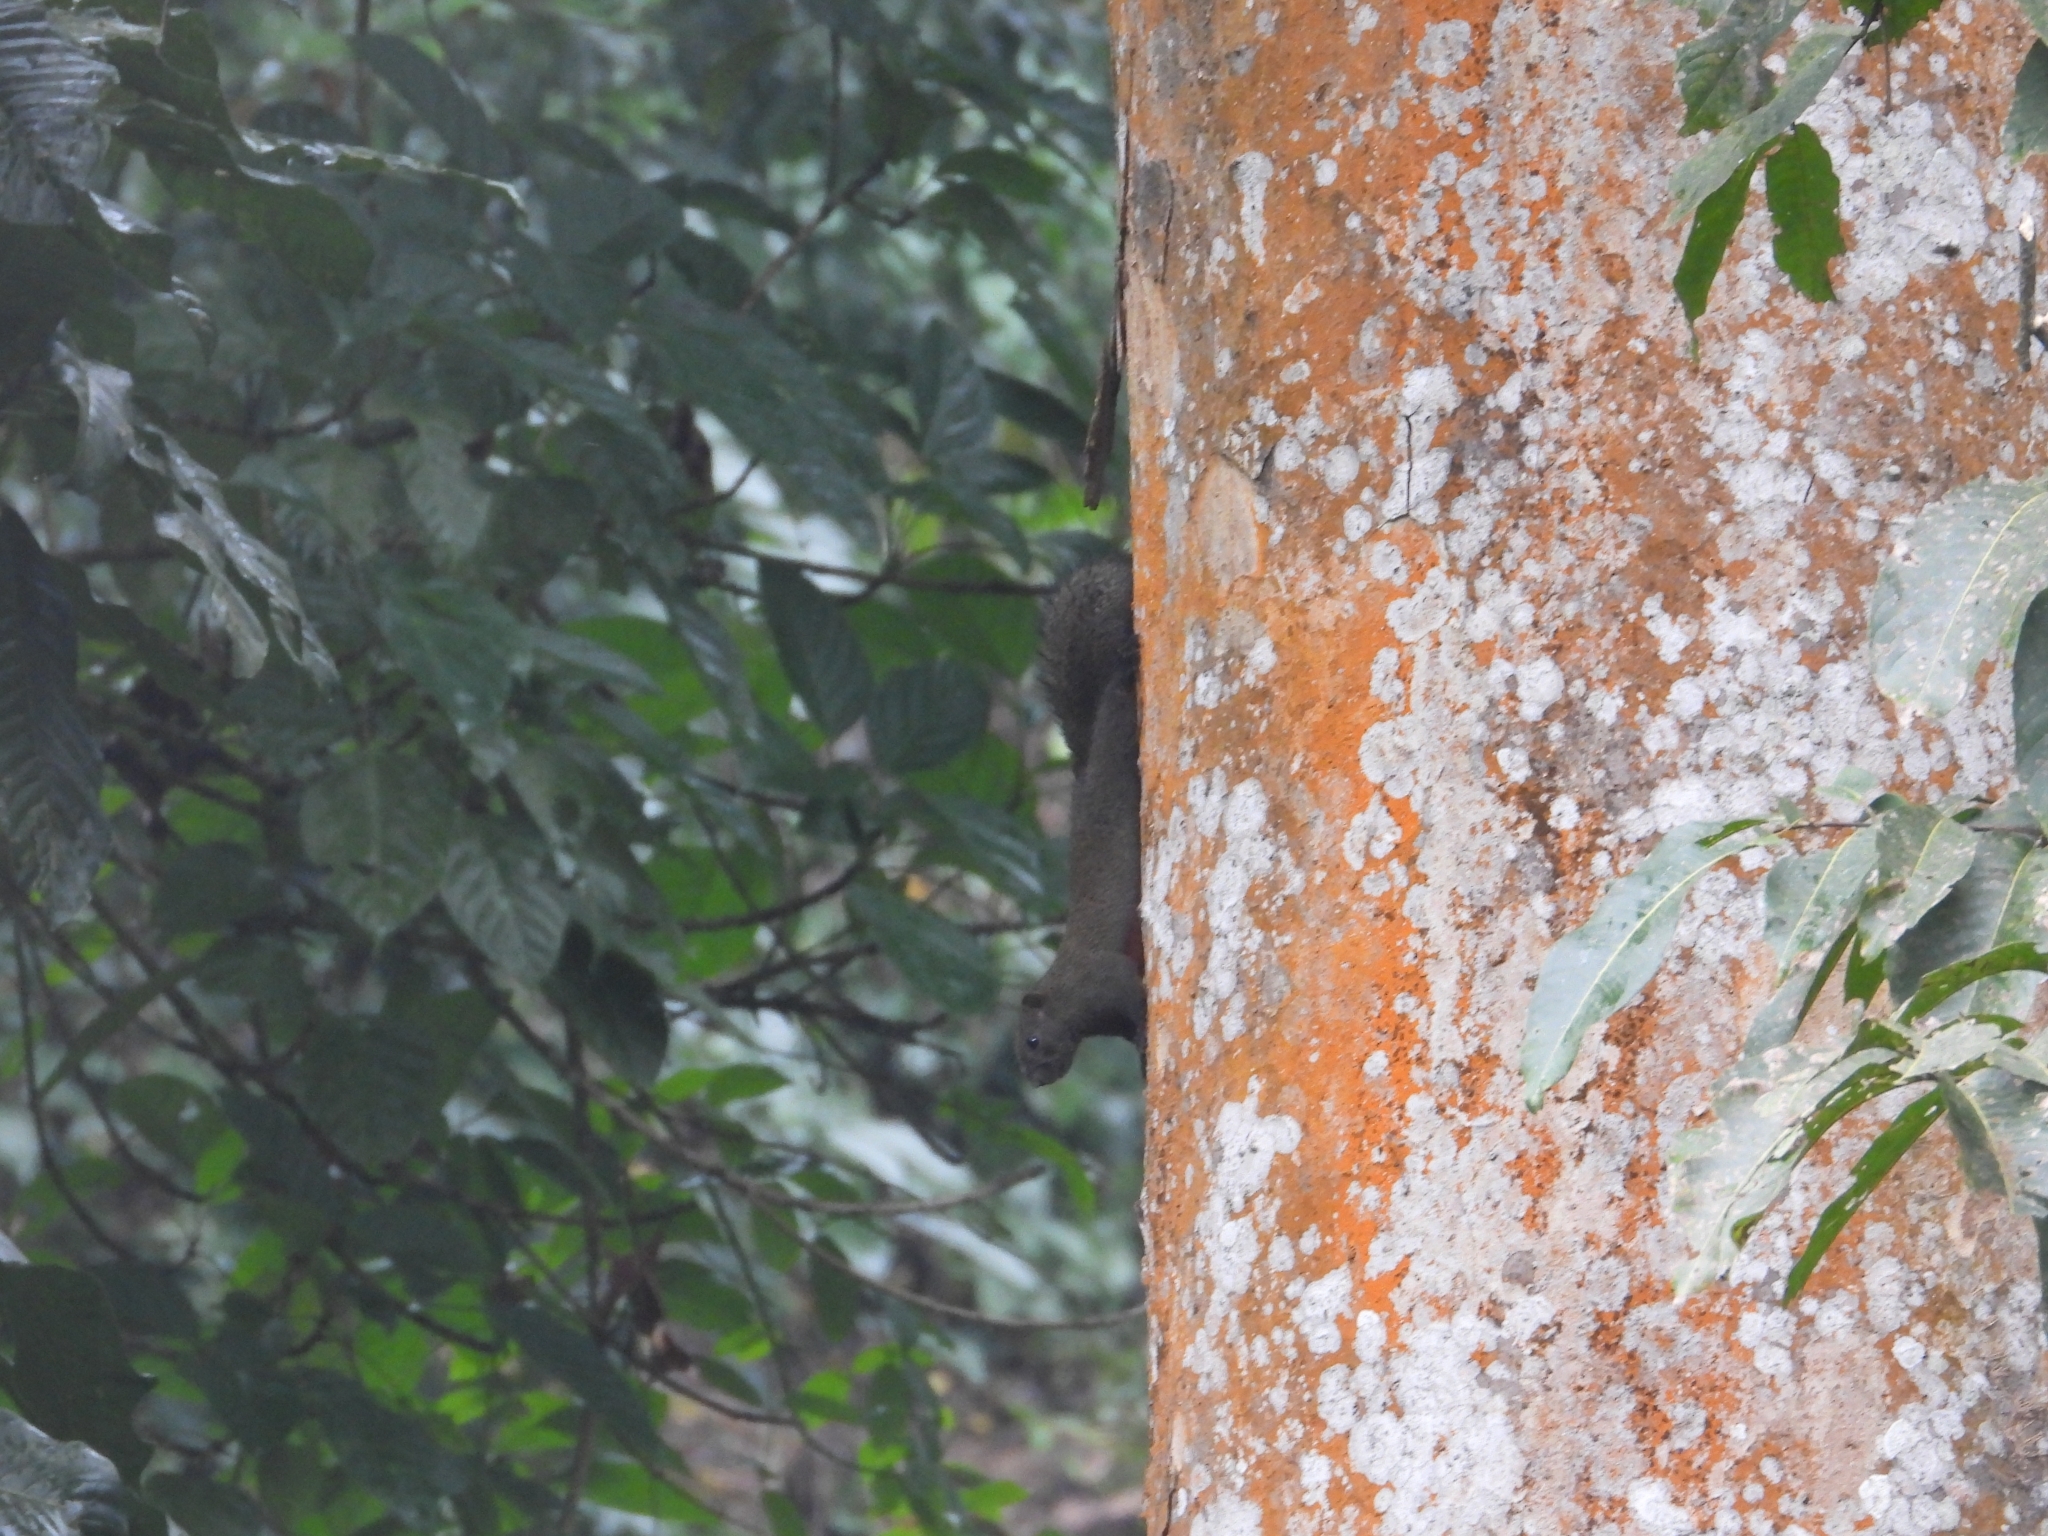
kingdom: Animalia
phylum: Chordata
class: Mammalia
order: Rodentia
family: Sciuridae
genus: Callosciurus
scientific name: Callosciurus erythraeus
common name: Pallas's squirrel
